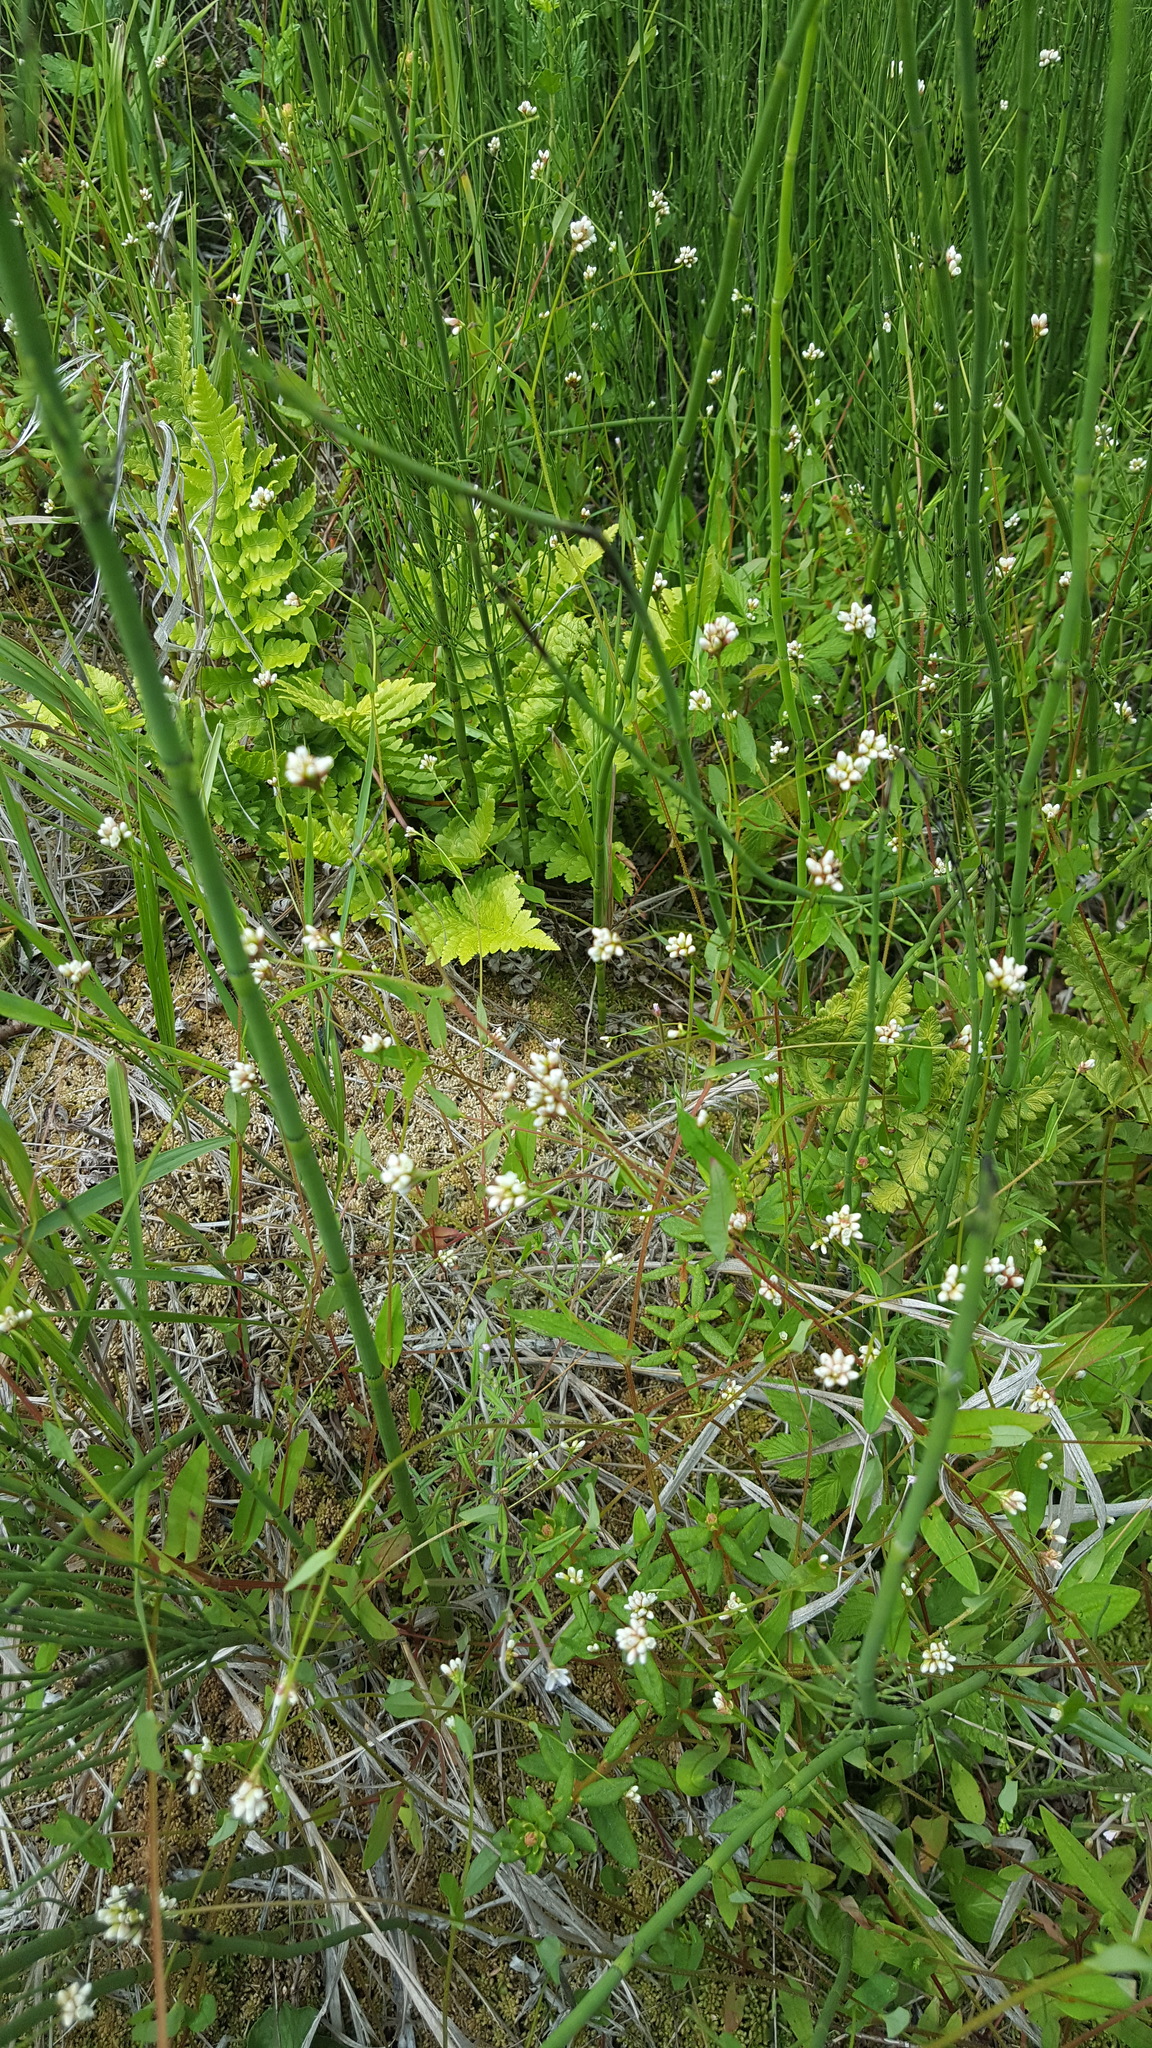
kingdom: Plantae
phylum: Tracheophyta
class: Magnoliopsida
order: Caryophyllales
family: Polygonaceae
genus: Persicaria
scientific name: Persicaria sagittata
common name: American tearthumb
